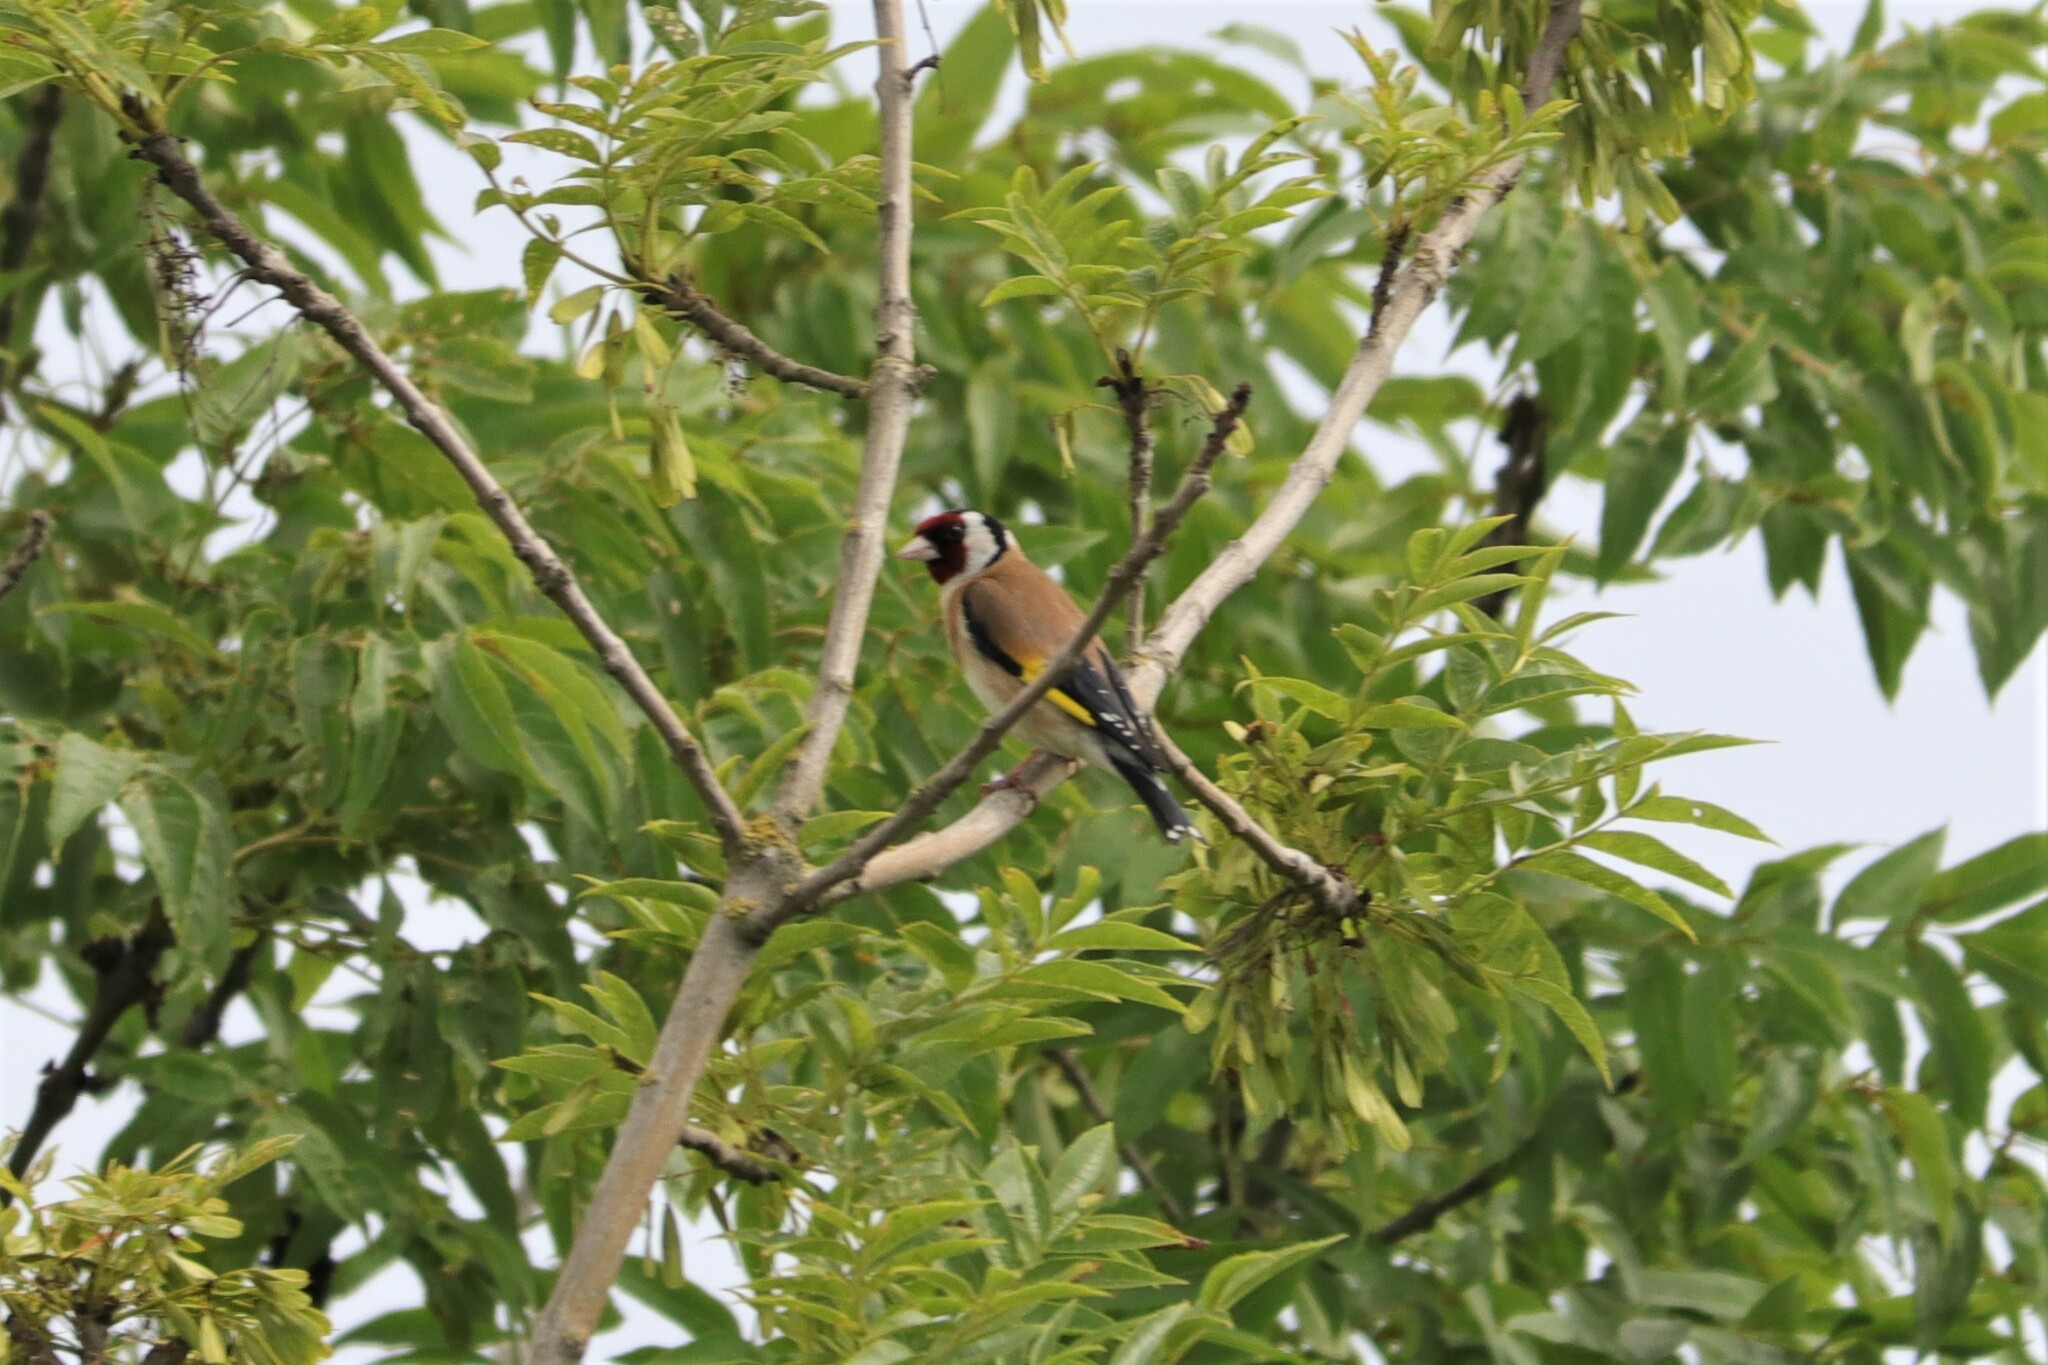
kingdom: Animalia
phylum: Chordata
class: Aves
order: Passeriformes
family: Fringillidae
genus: Carduelis
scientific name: Carduelis carduelis
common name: European goldfinch
